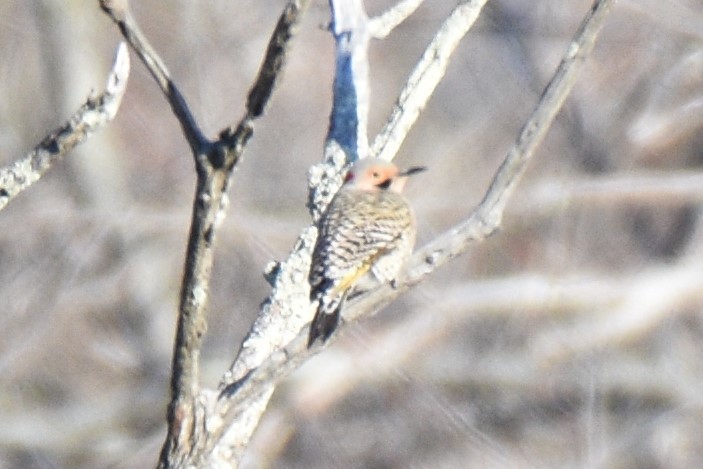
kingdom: Animalia
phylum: Chordata
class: Aves
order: Piciformes
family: Picidae
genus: Colaptes
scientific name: Colaptes auratus
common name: Northern flicker
